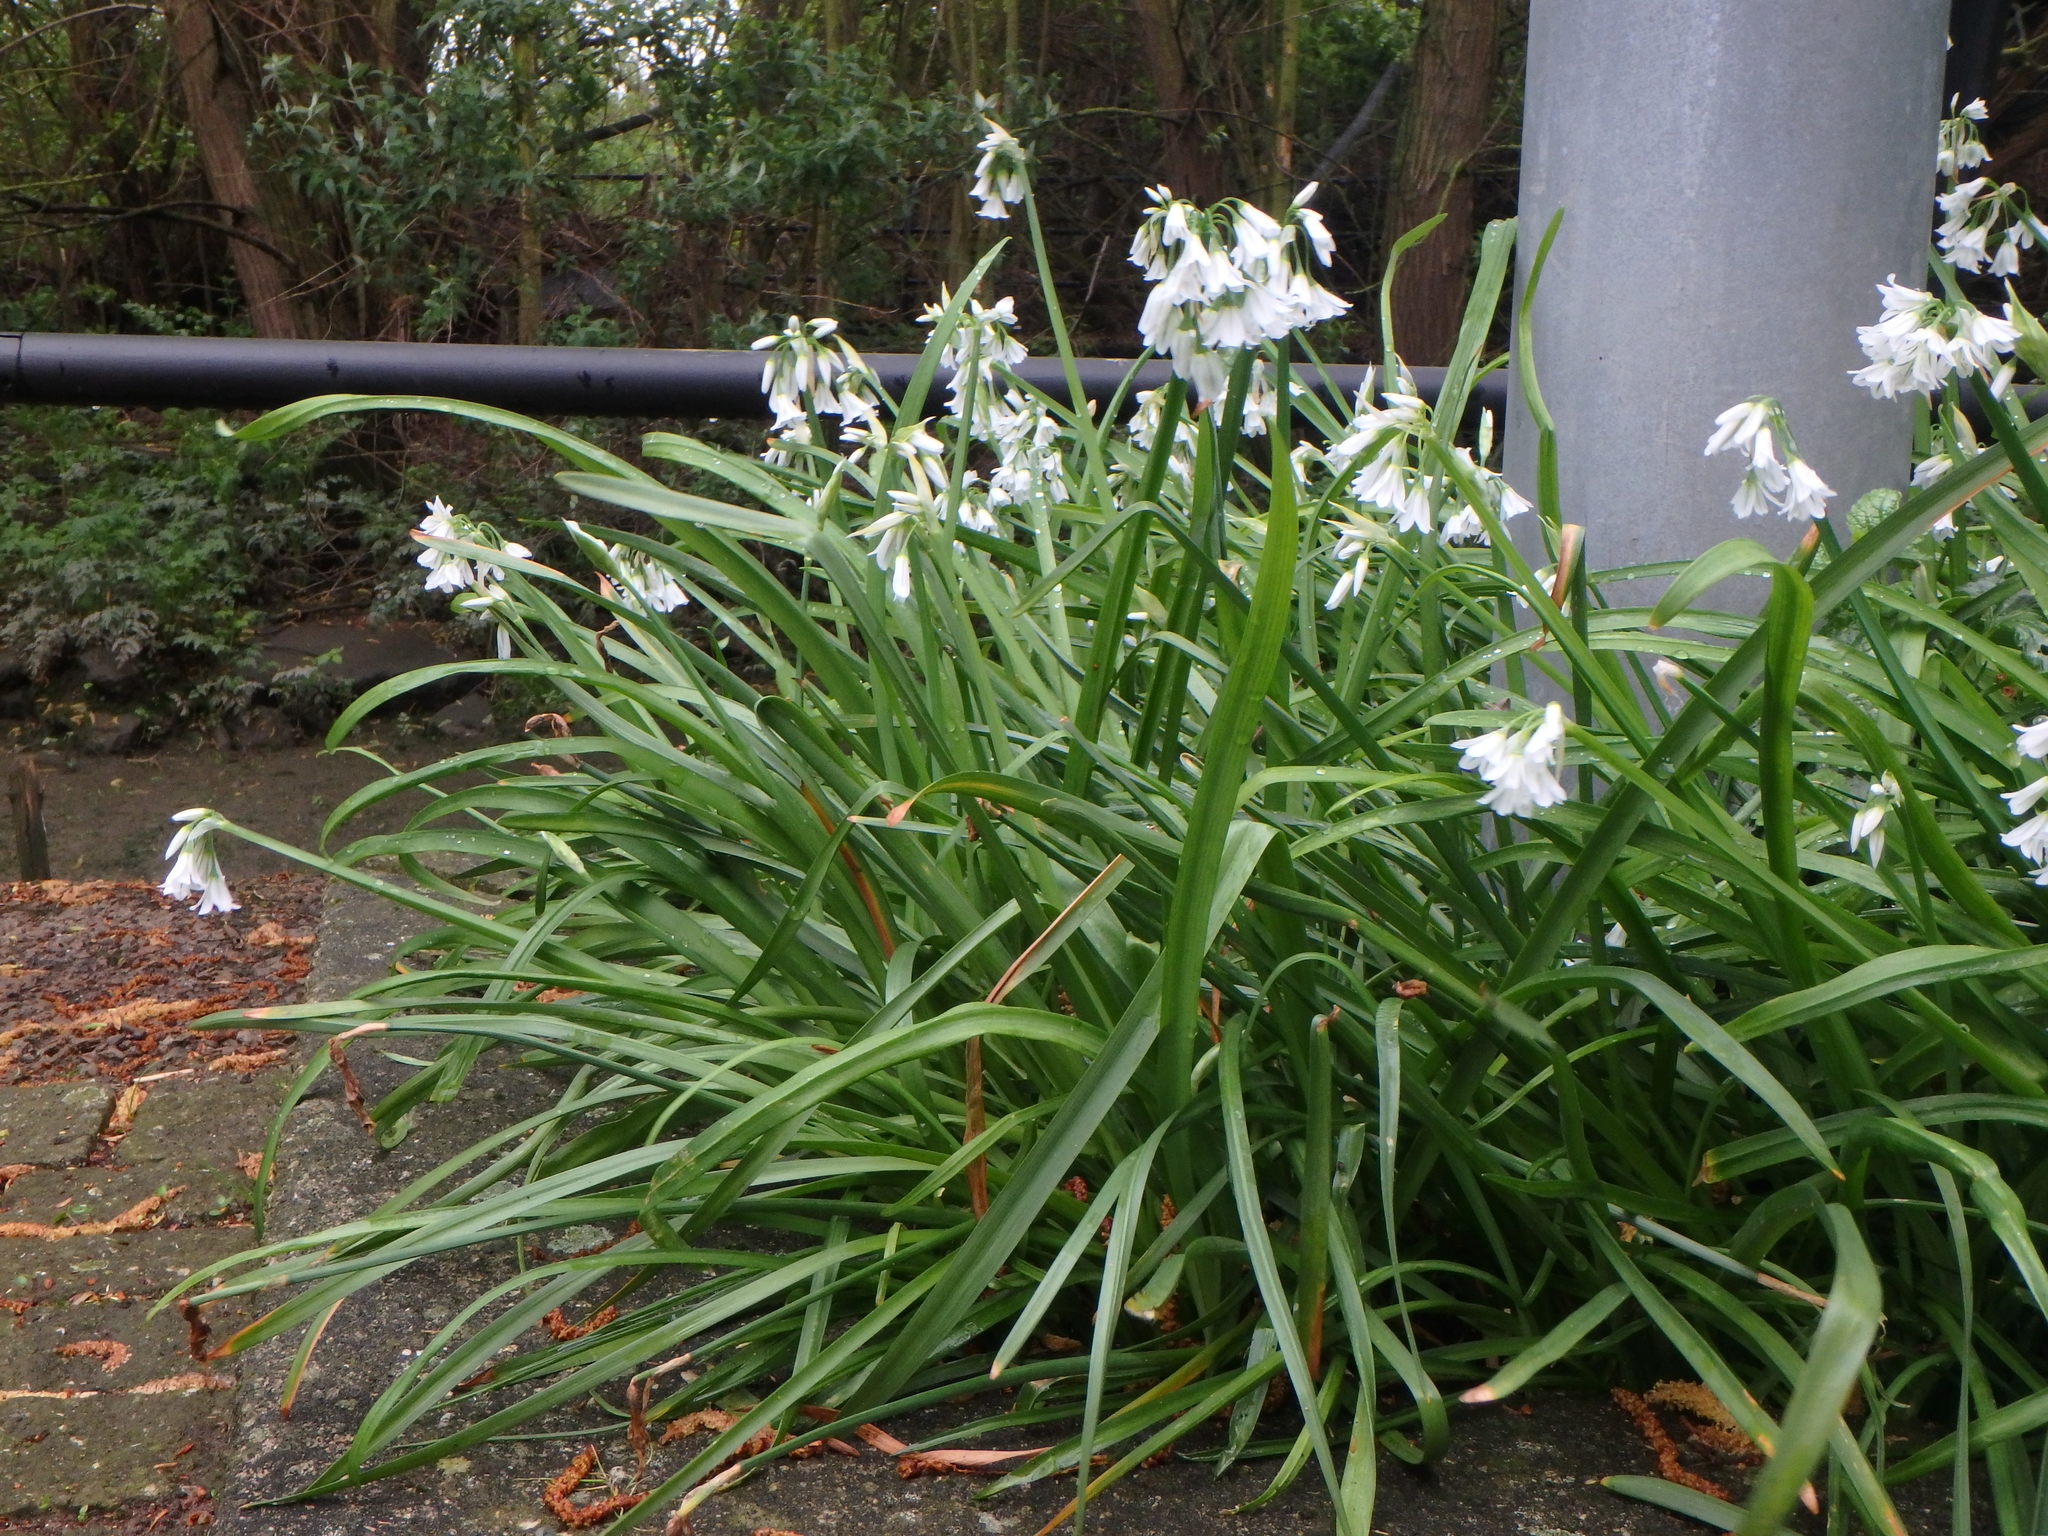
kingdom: Plantae
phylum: Tracheophyta
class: Liliopsida
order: Asparagales
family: Amaryllidaceae
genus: Allium
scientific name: Allium triquetrum
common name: Three-cornered garlic
